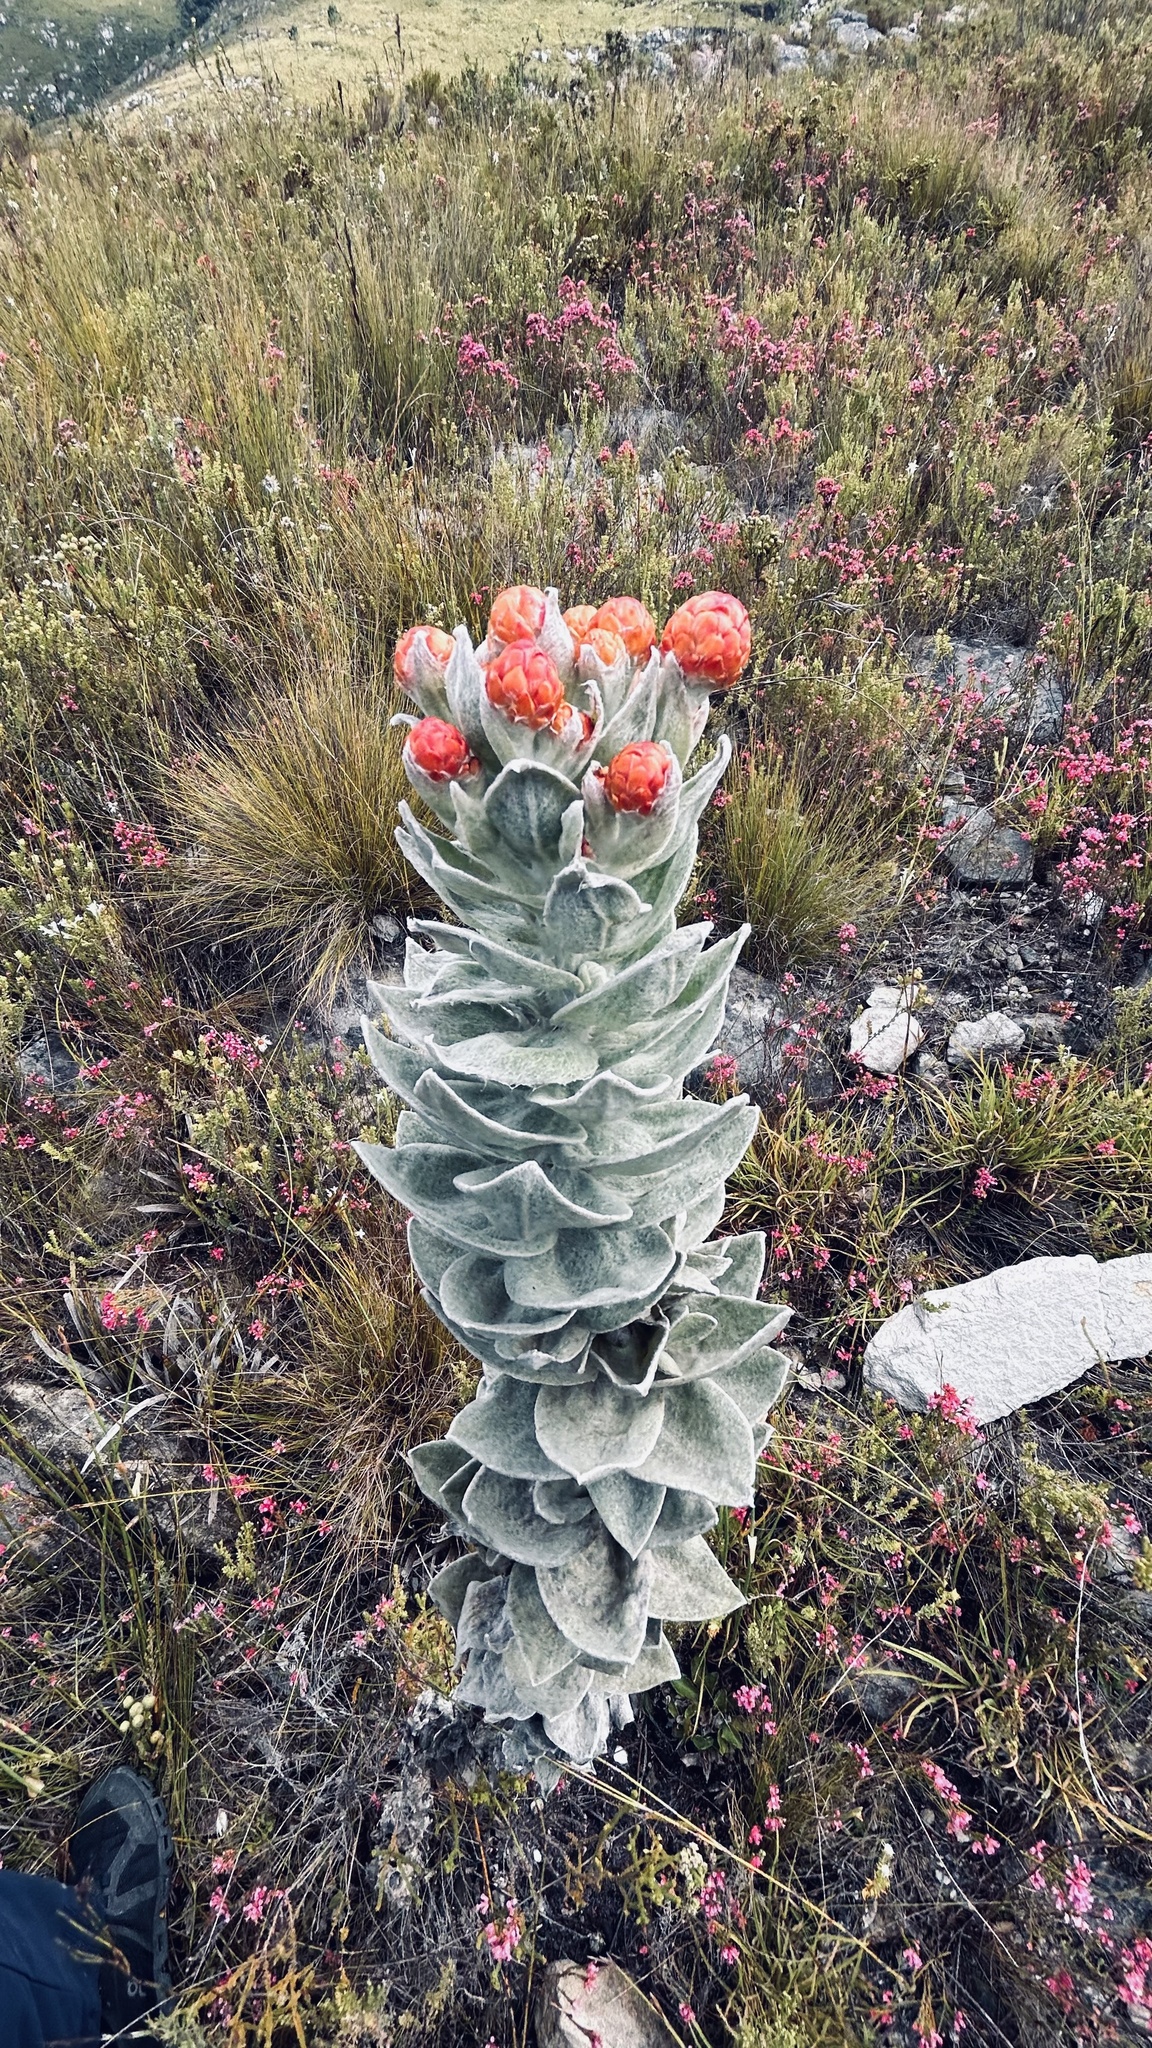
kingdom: Plantae
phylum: Tracheophyta
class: Magnoliopsida
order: Asterales
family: Asteraceae
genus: Syncarpha
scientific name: Syncarpha eximia
